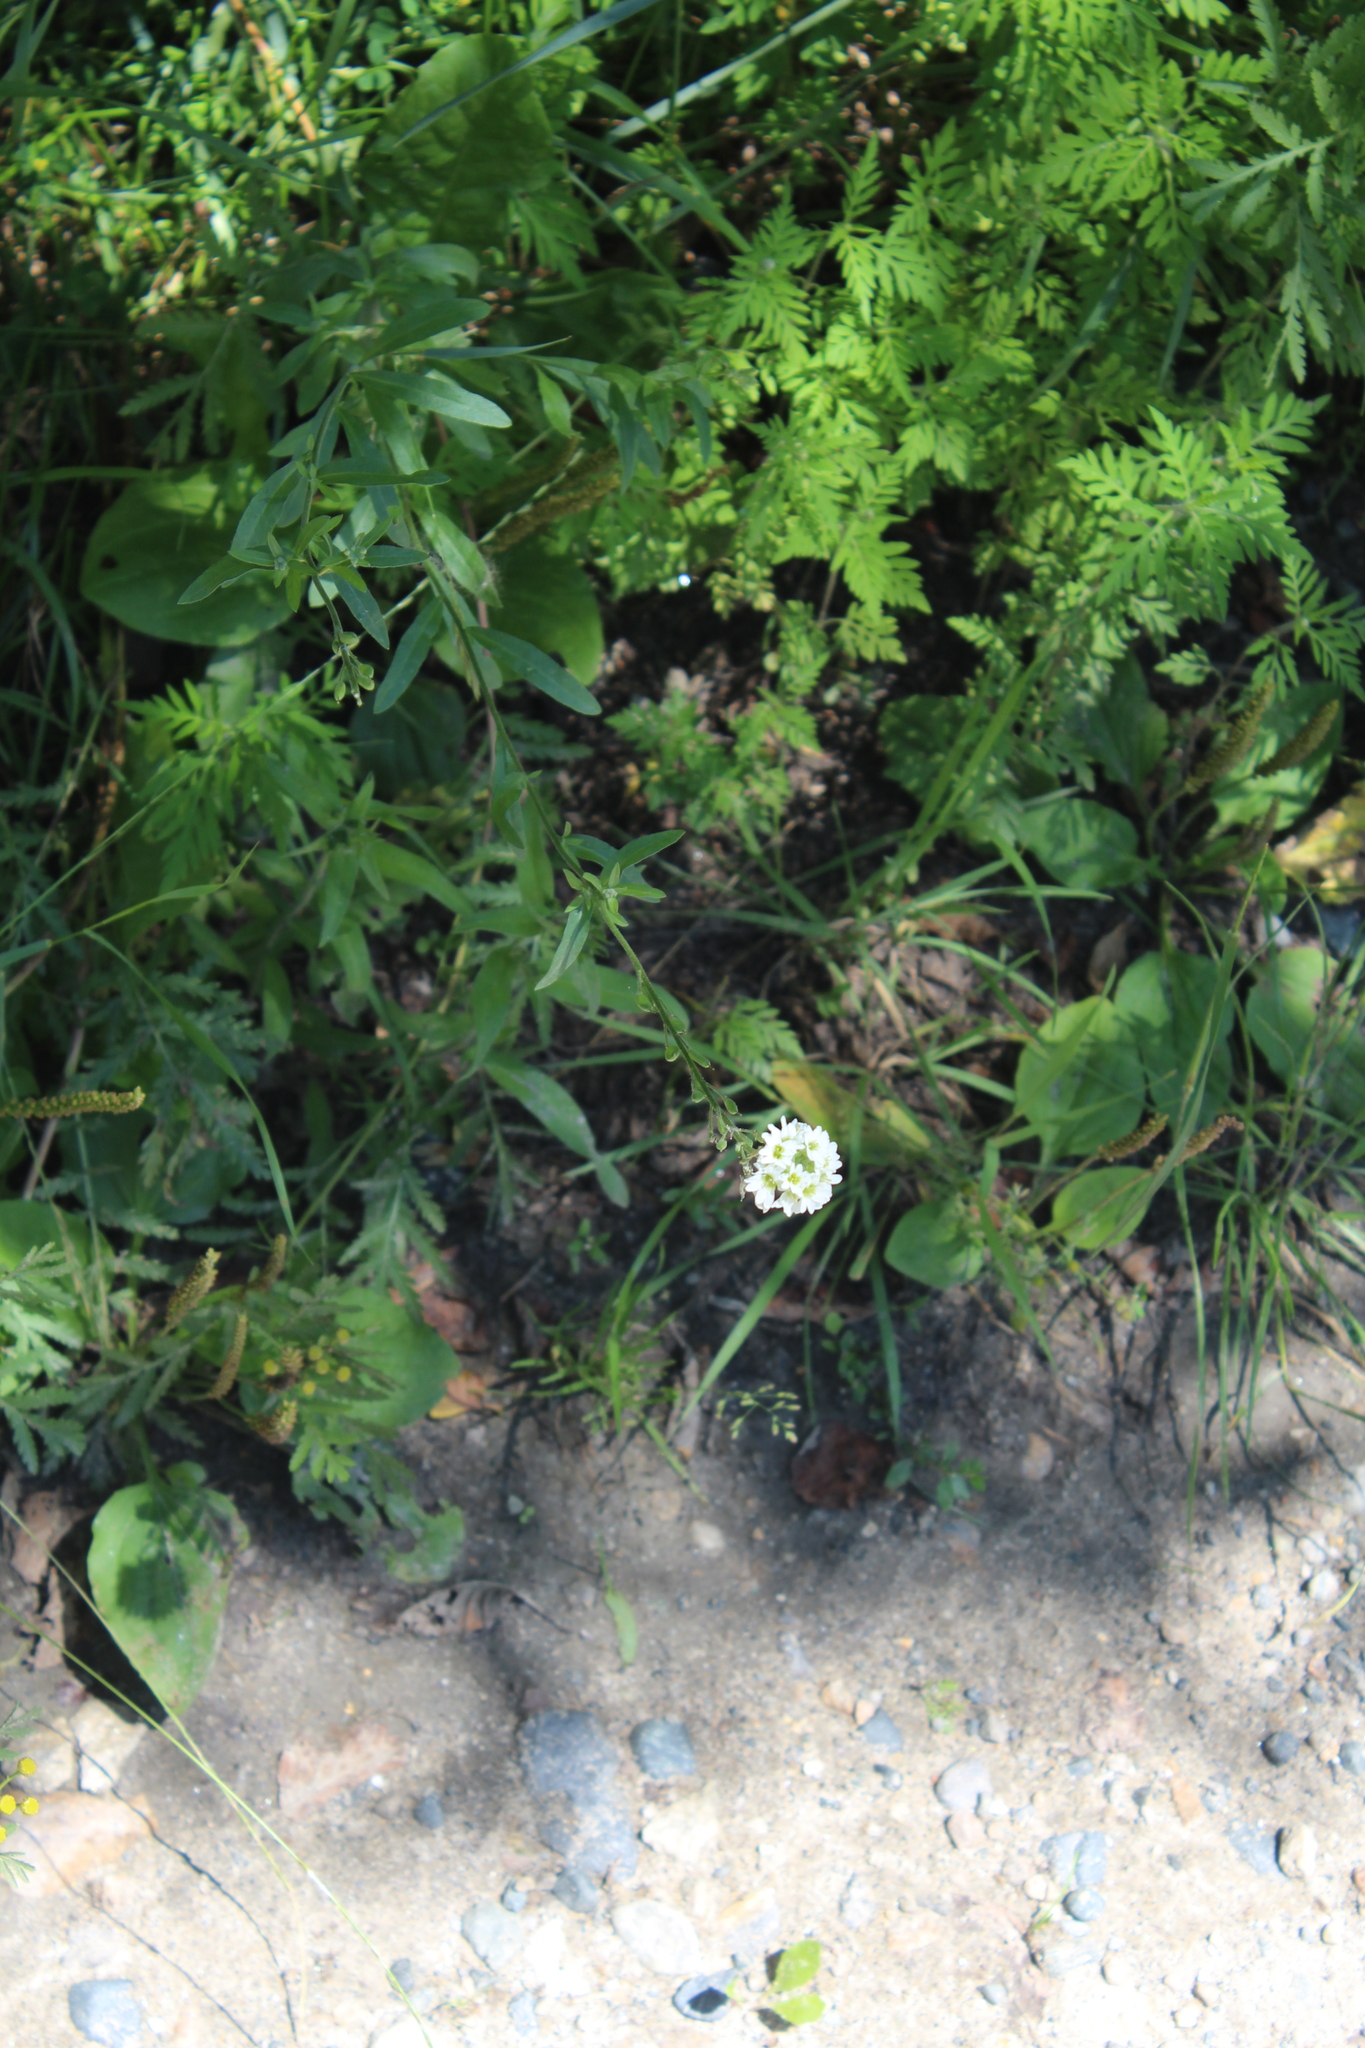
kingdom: Plantae
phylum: Tracheophyta
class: Magnoliopsida
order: Brassicales
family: Brassicaceae
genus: Berteroa
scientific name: Berteroa incana
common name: Hoary alison
